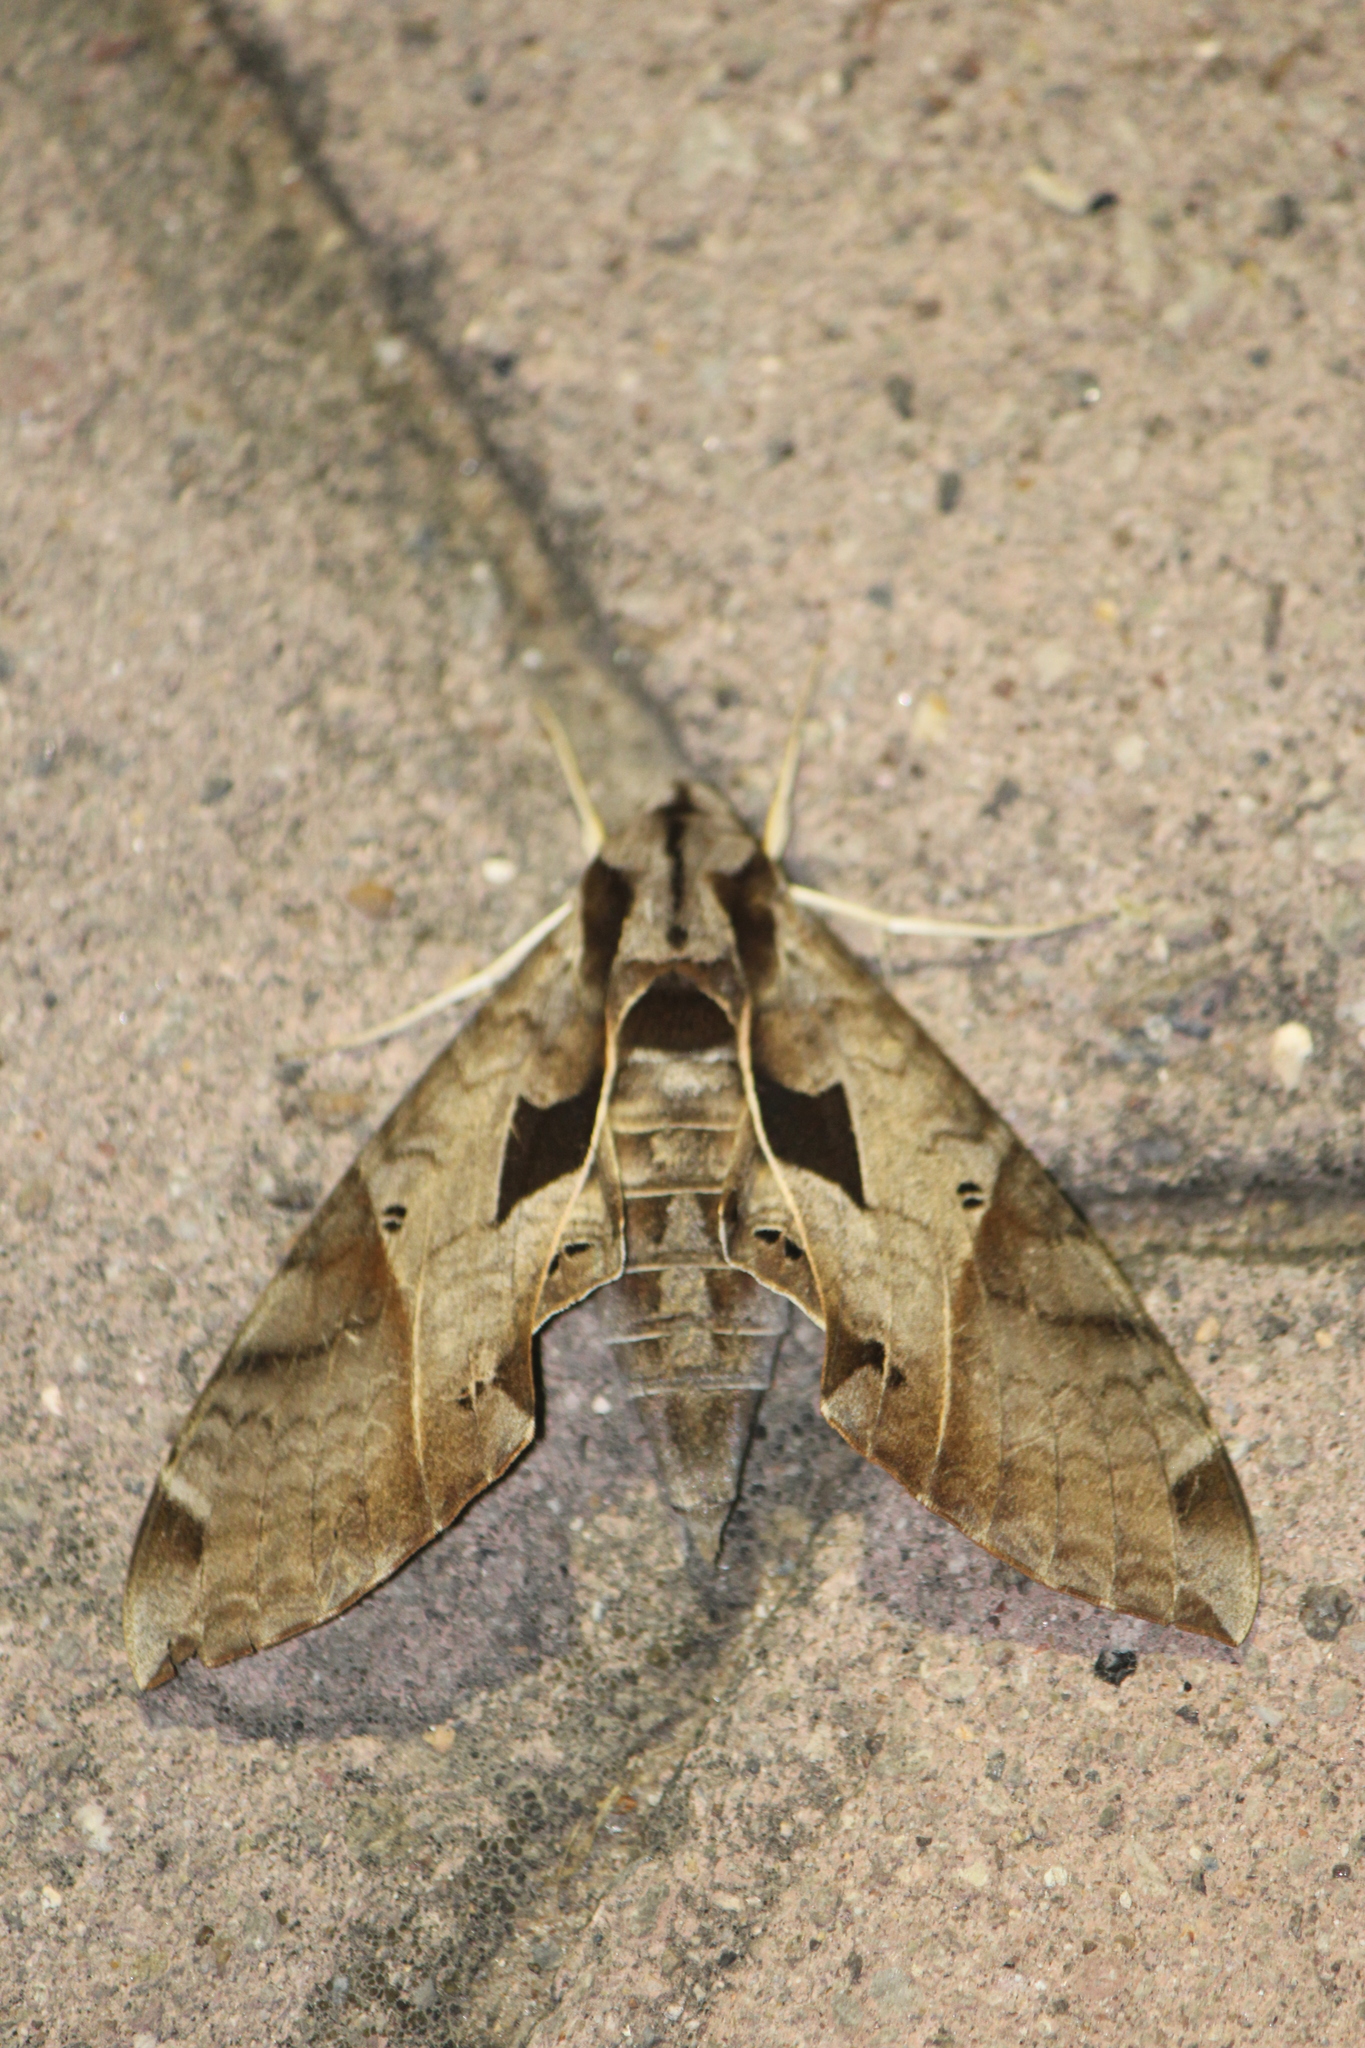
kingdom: Animalia
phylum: Arthropoda
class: Insecta
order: Lepidoptera
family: Sphingidae
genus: Eumorpha
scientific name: Eumorpha satellitia
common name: Satellite sphinx
